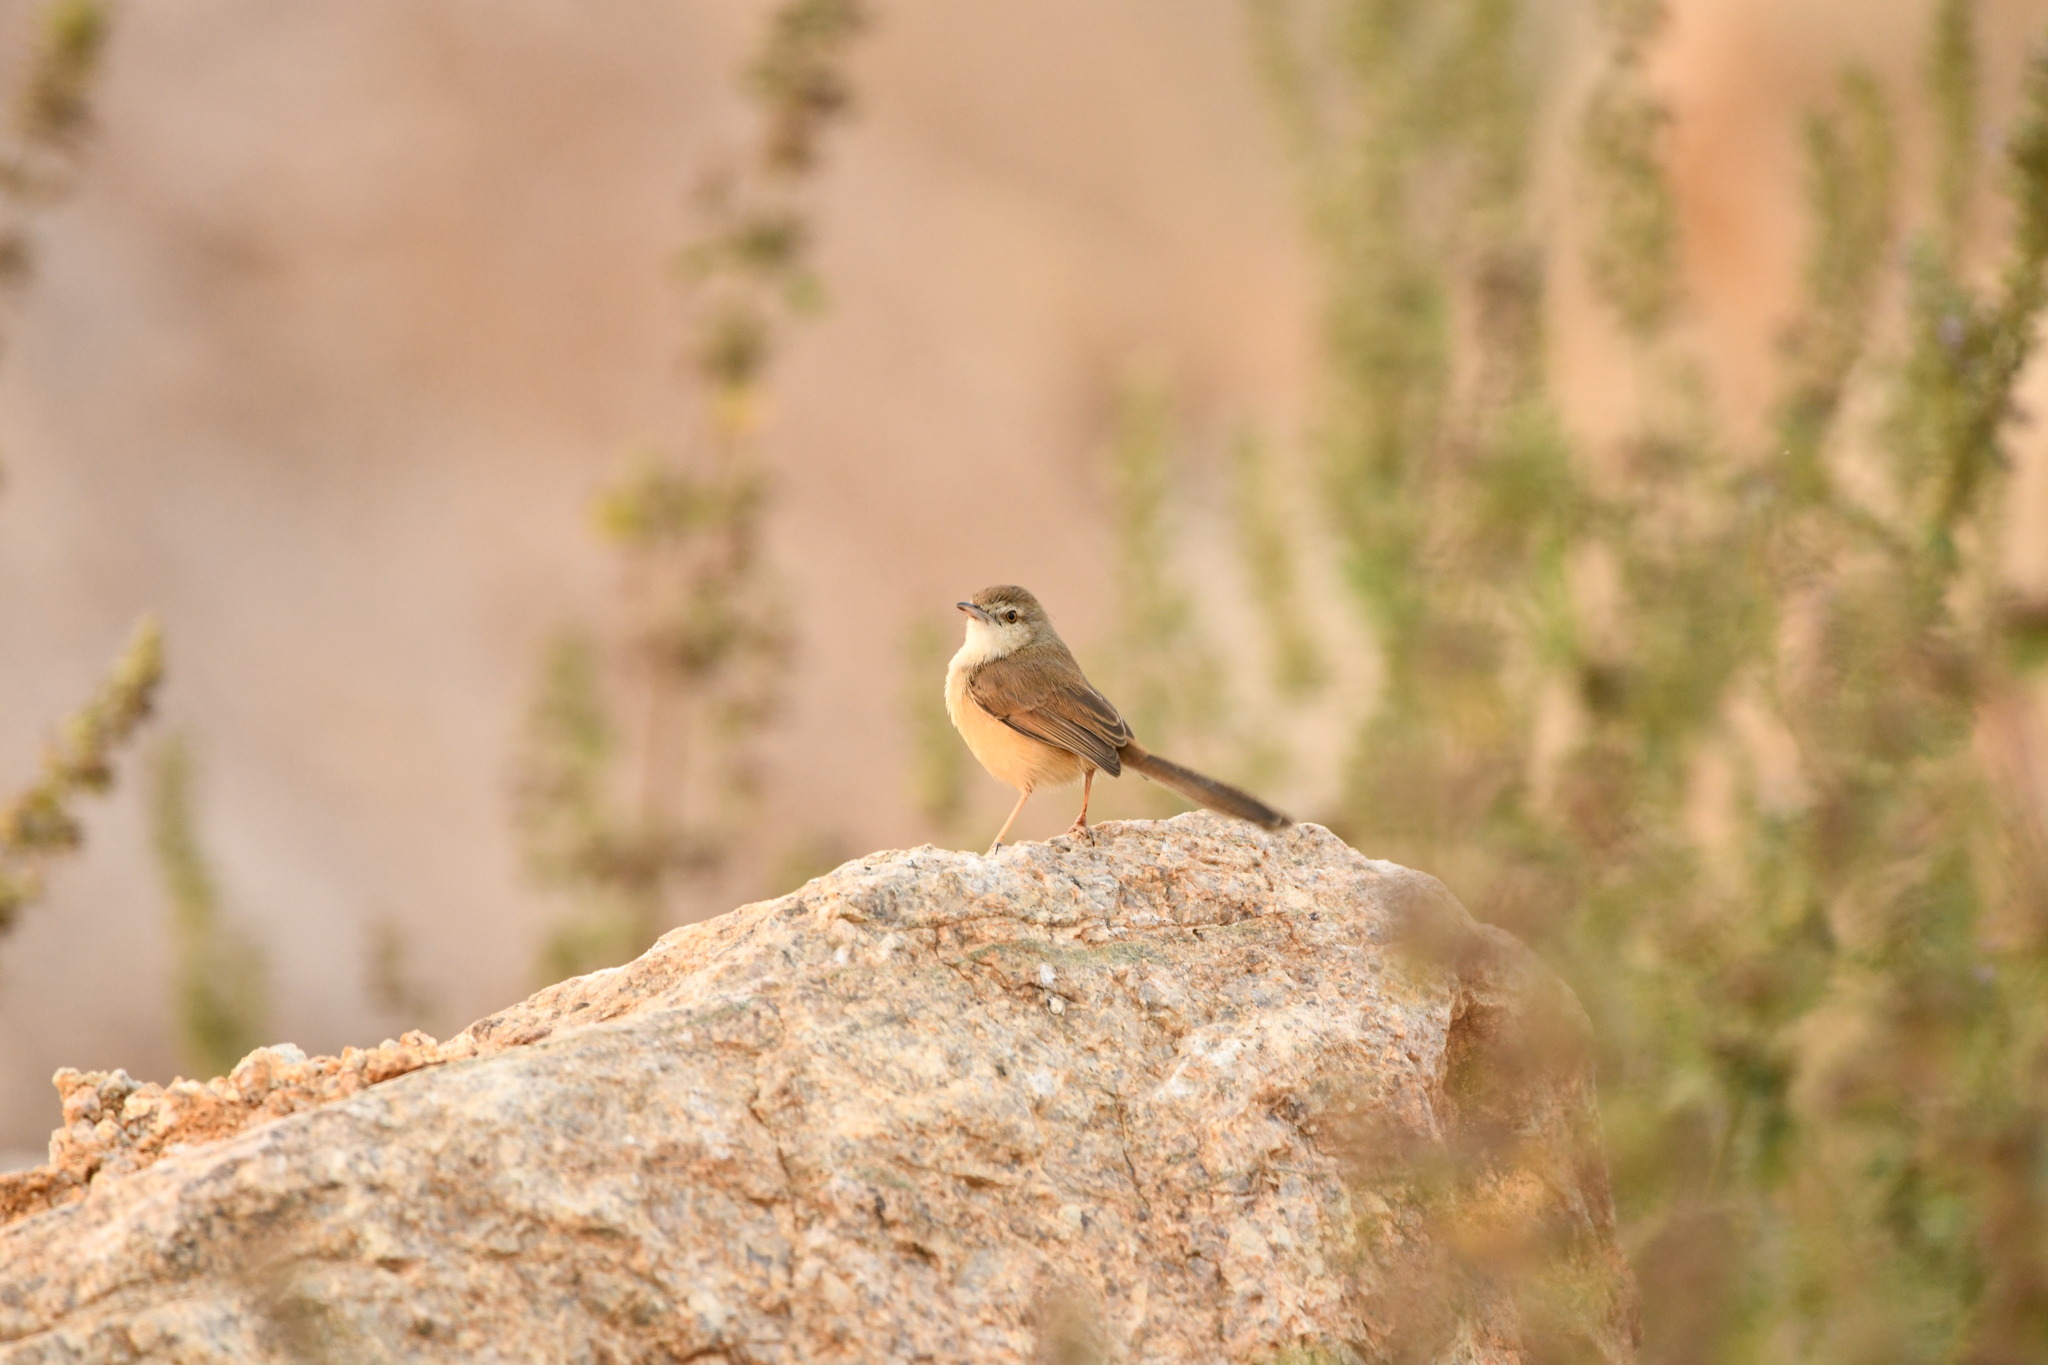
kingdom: Animalia
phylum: Chordata
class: Aves
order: Passeriformes
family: Cisticolidae
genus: Prinia
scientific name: Prinia inornata
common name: Plain prinia
